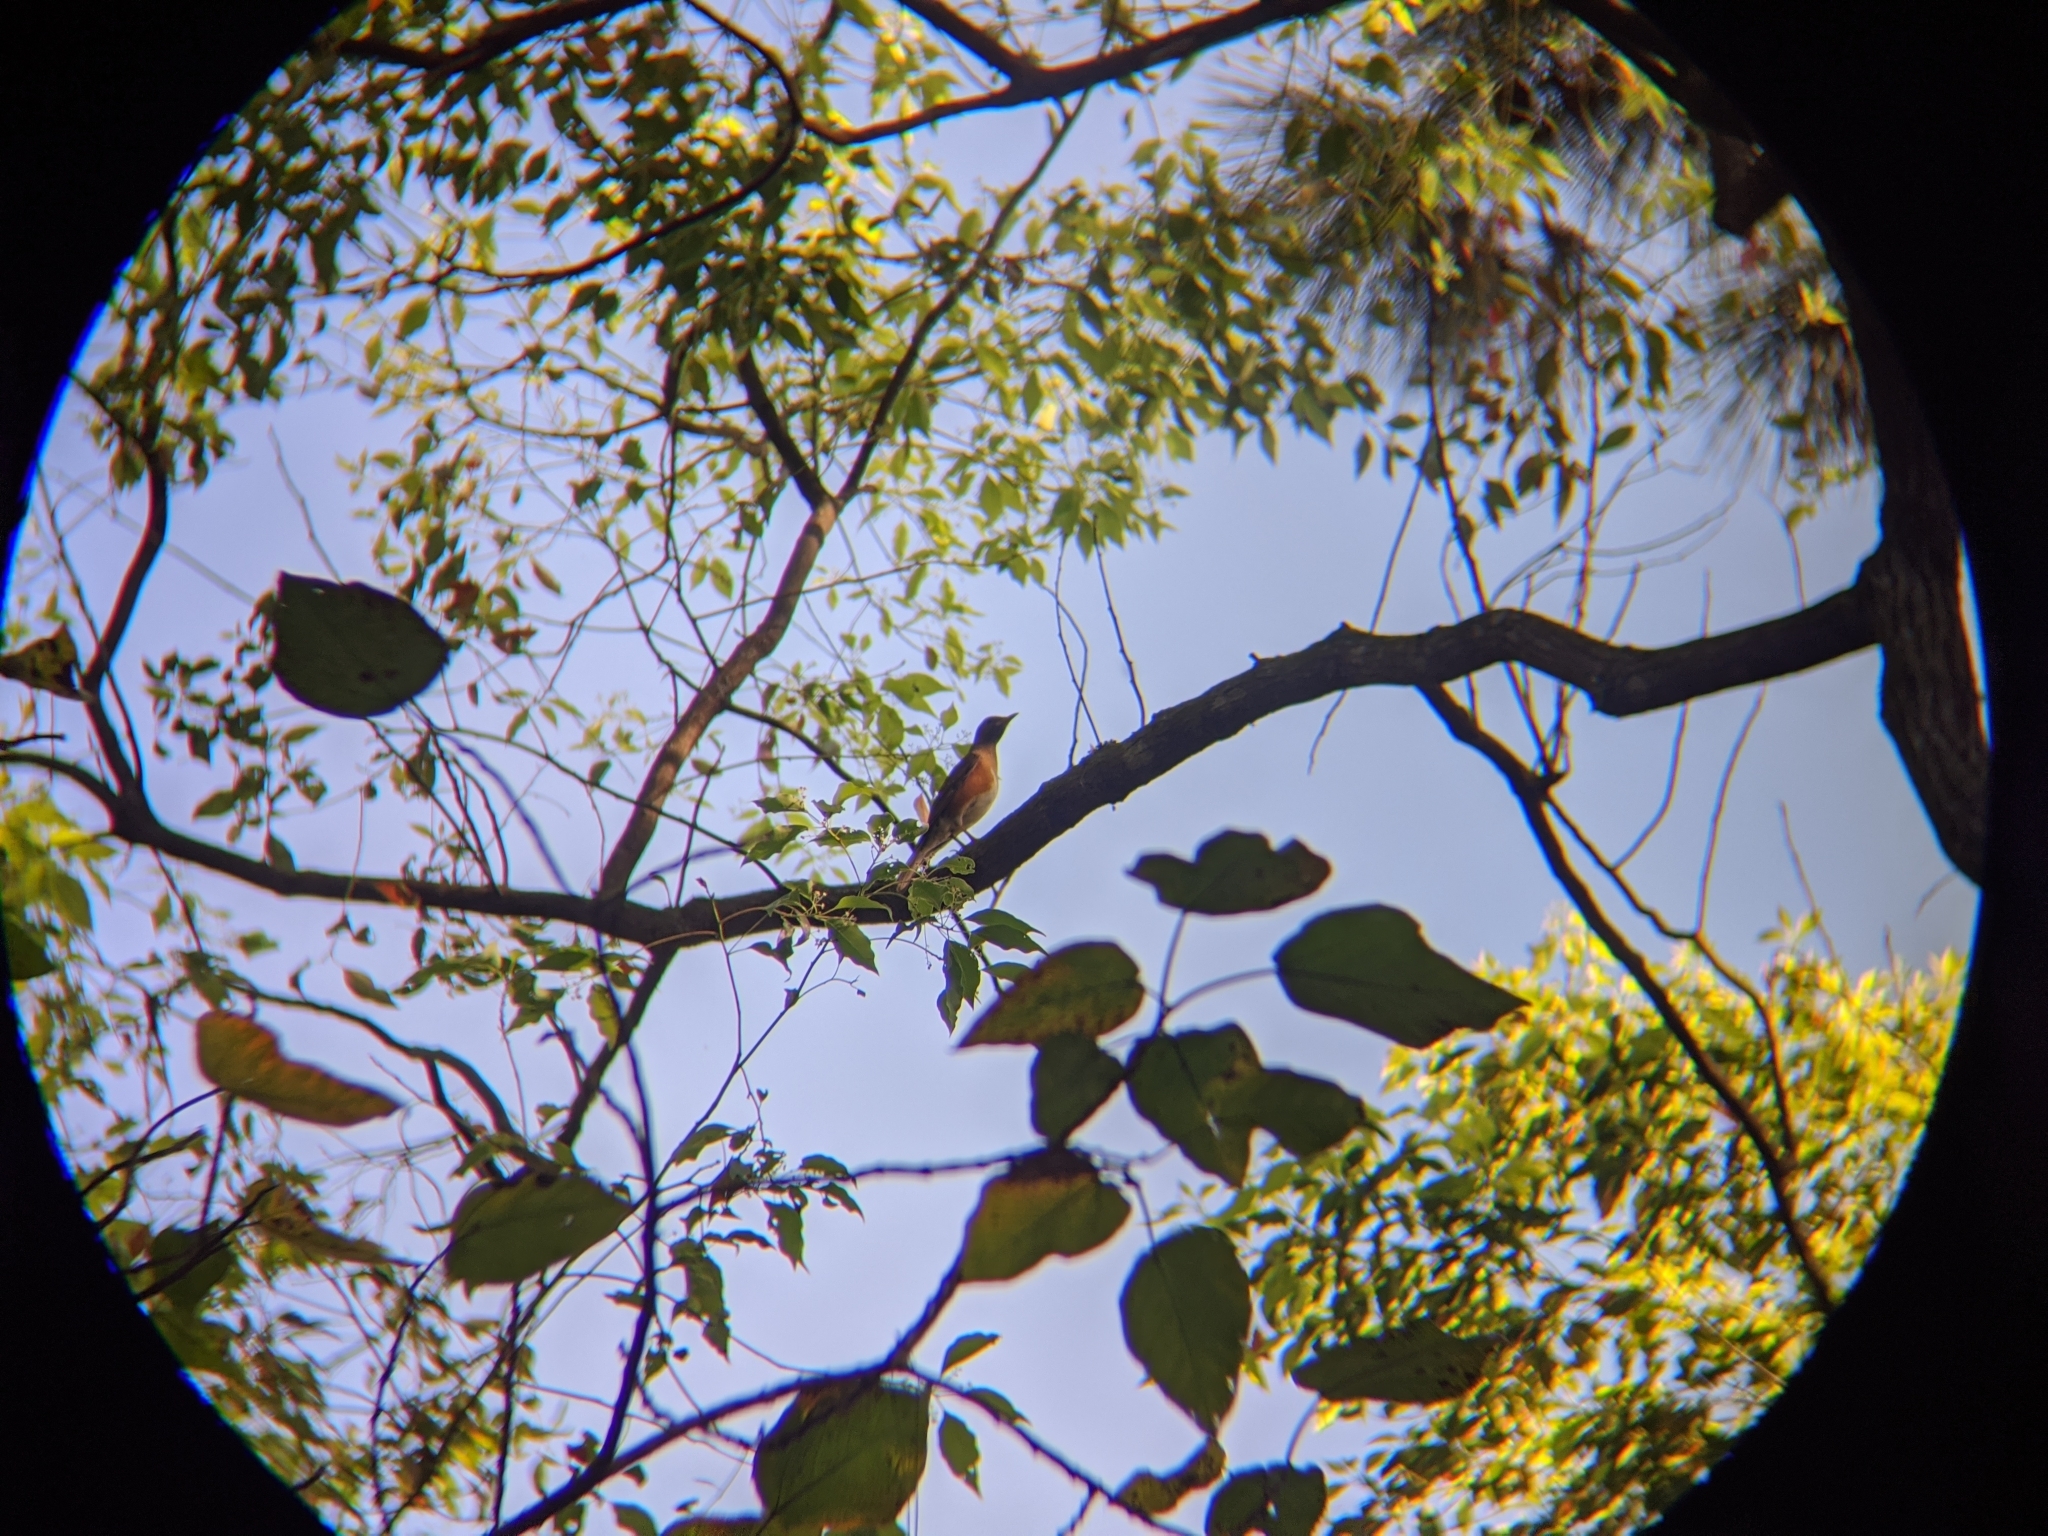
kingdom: Animalia
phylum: Chordata
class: Aves
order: Passeriformes
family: Turdidae
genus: Turdus
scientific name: Turdus chrysolaus
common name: Brown-headed thrush
